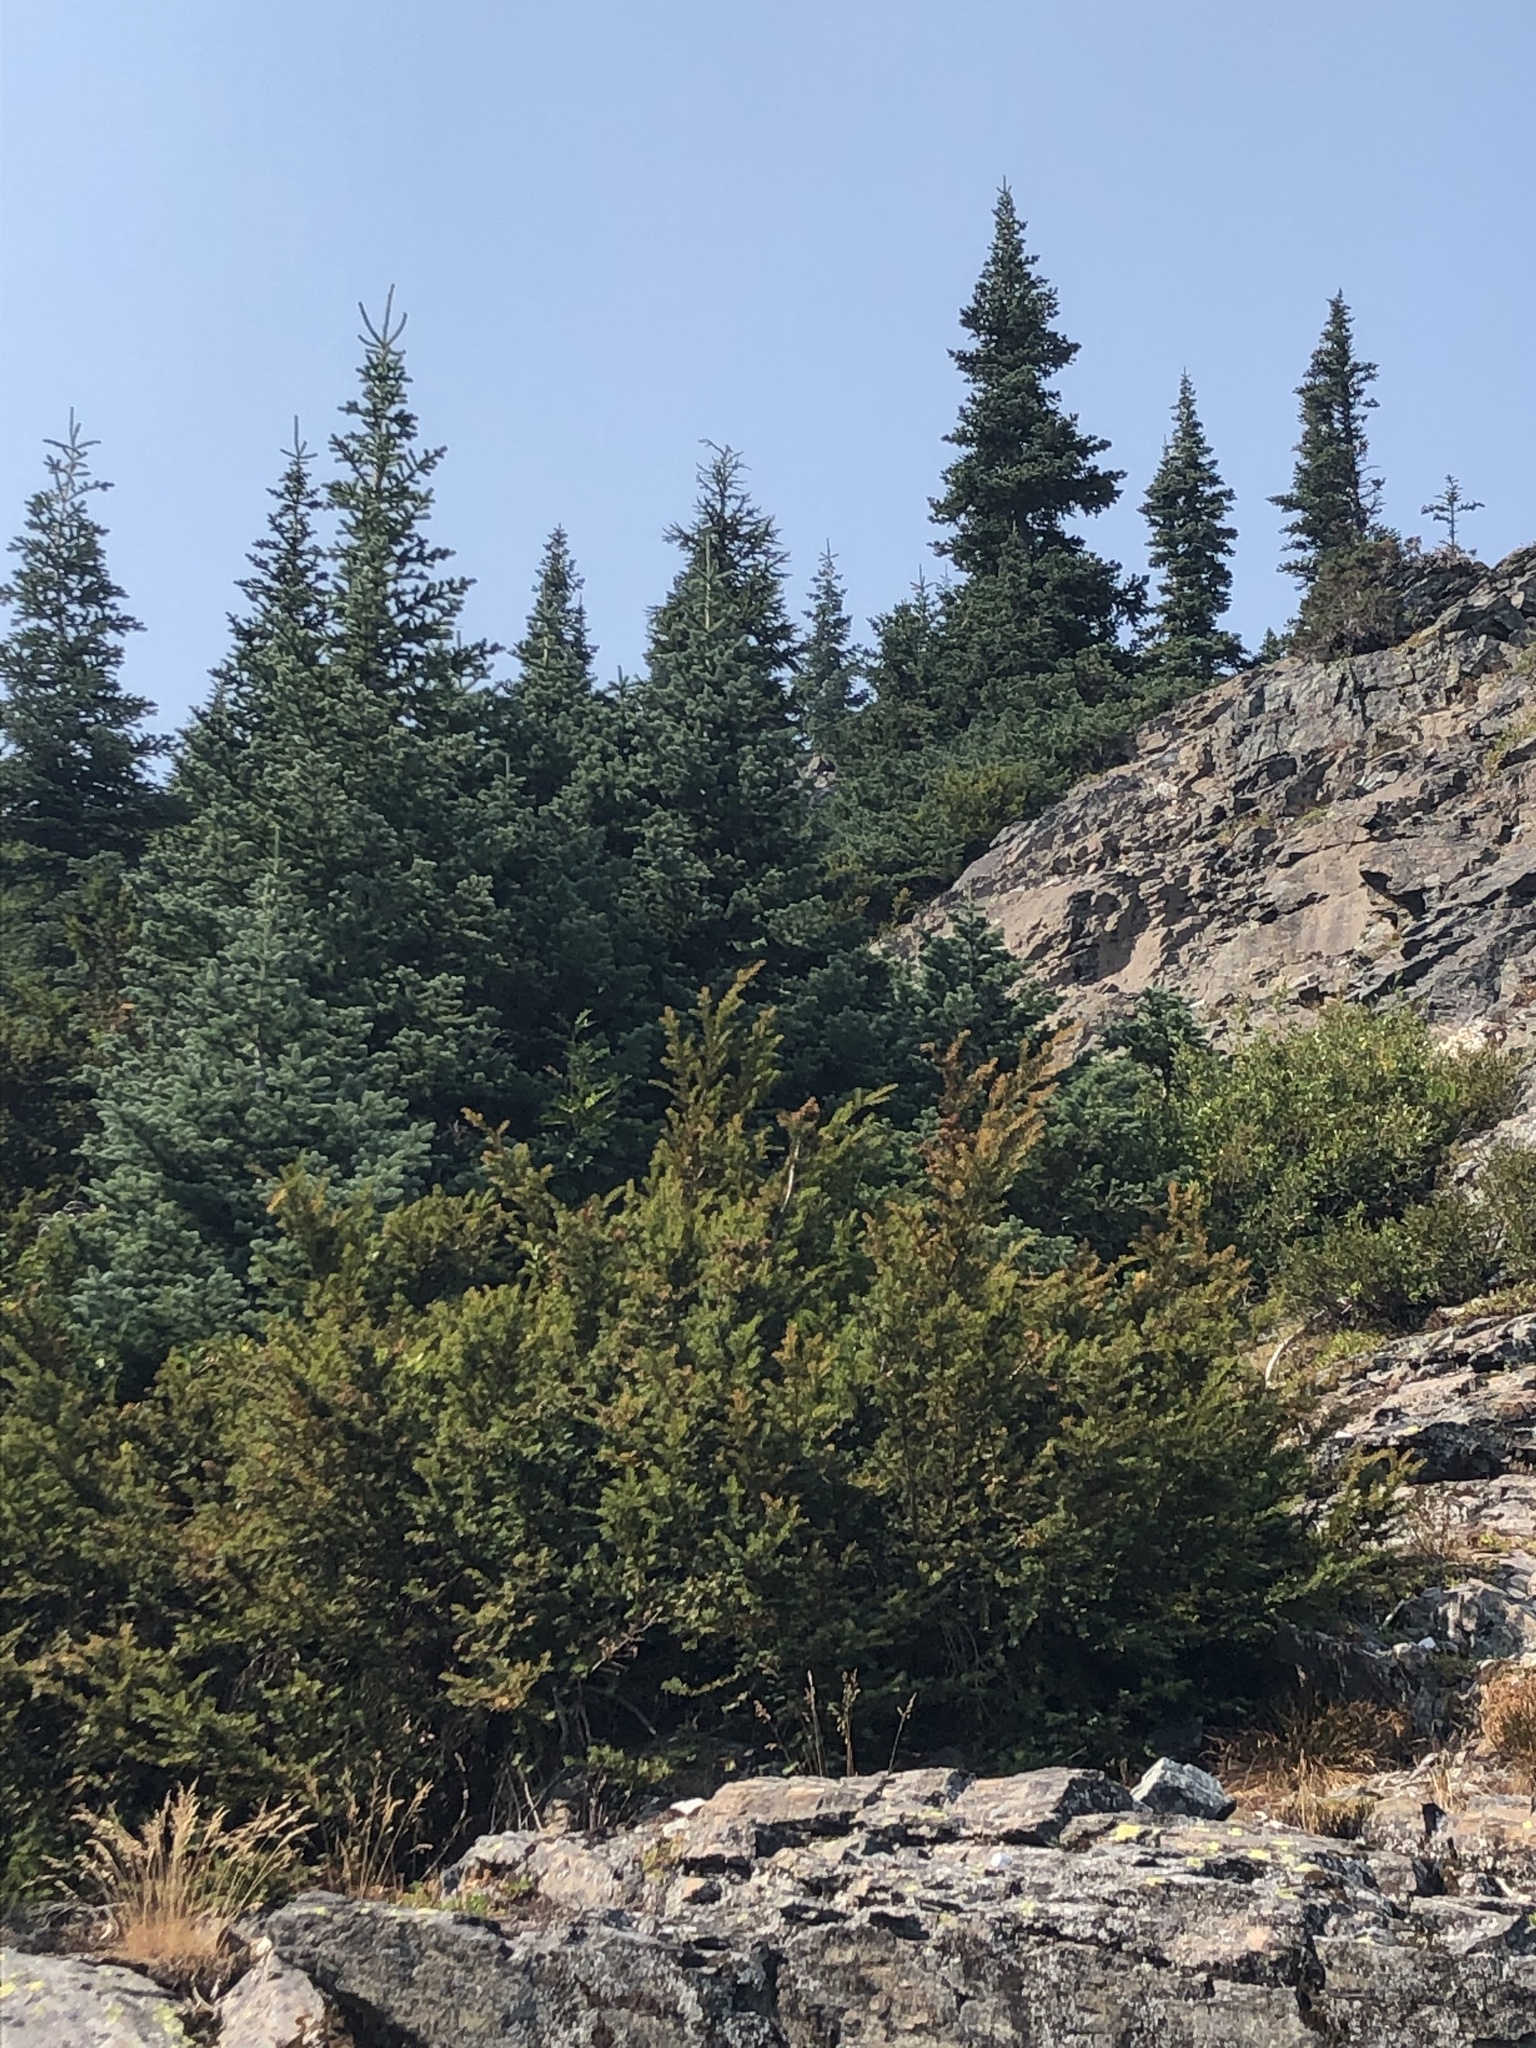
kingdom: Plantae
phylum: Tracheophyta
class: Pinopsida
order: Pinales
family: Taxaceae
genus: Taxus
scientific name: Taxus brevifolia
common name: Pacific yew
